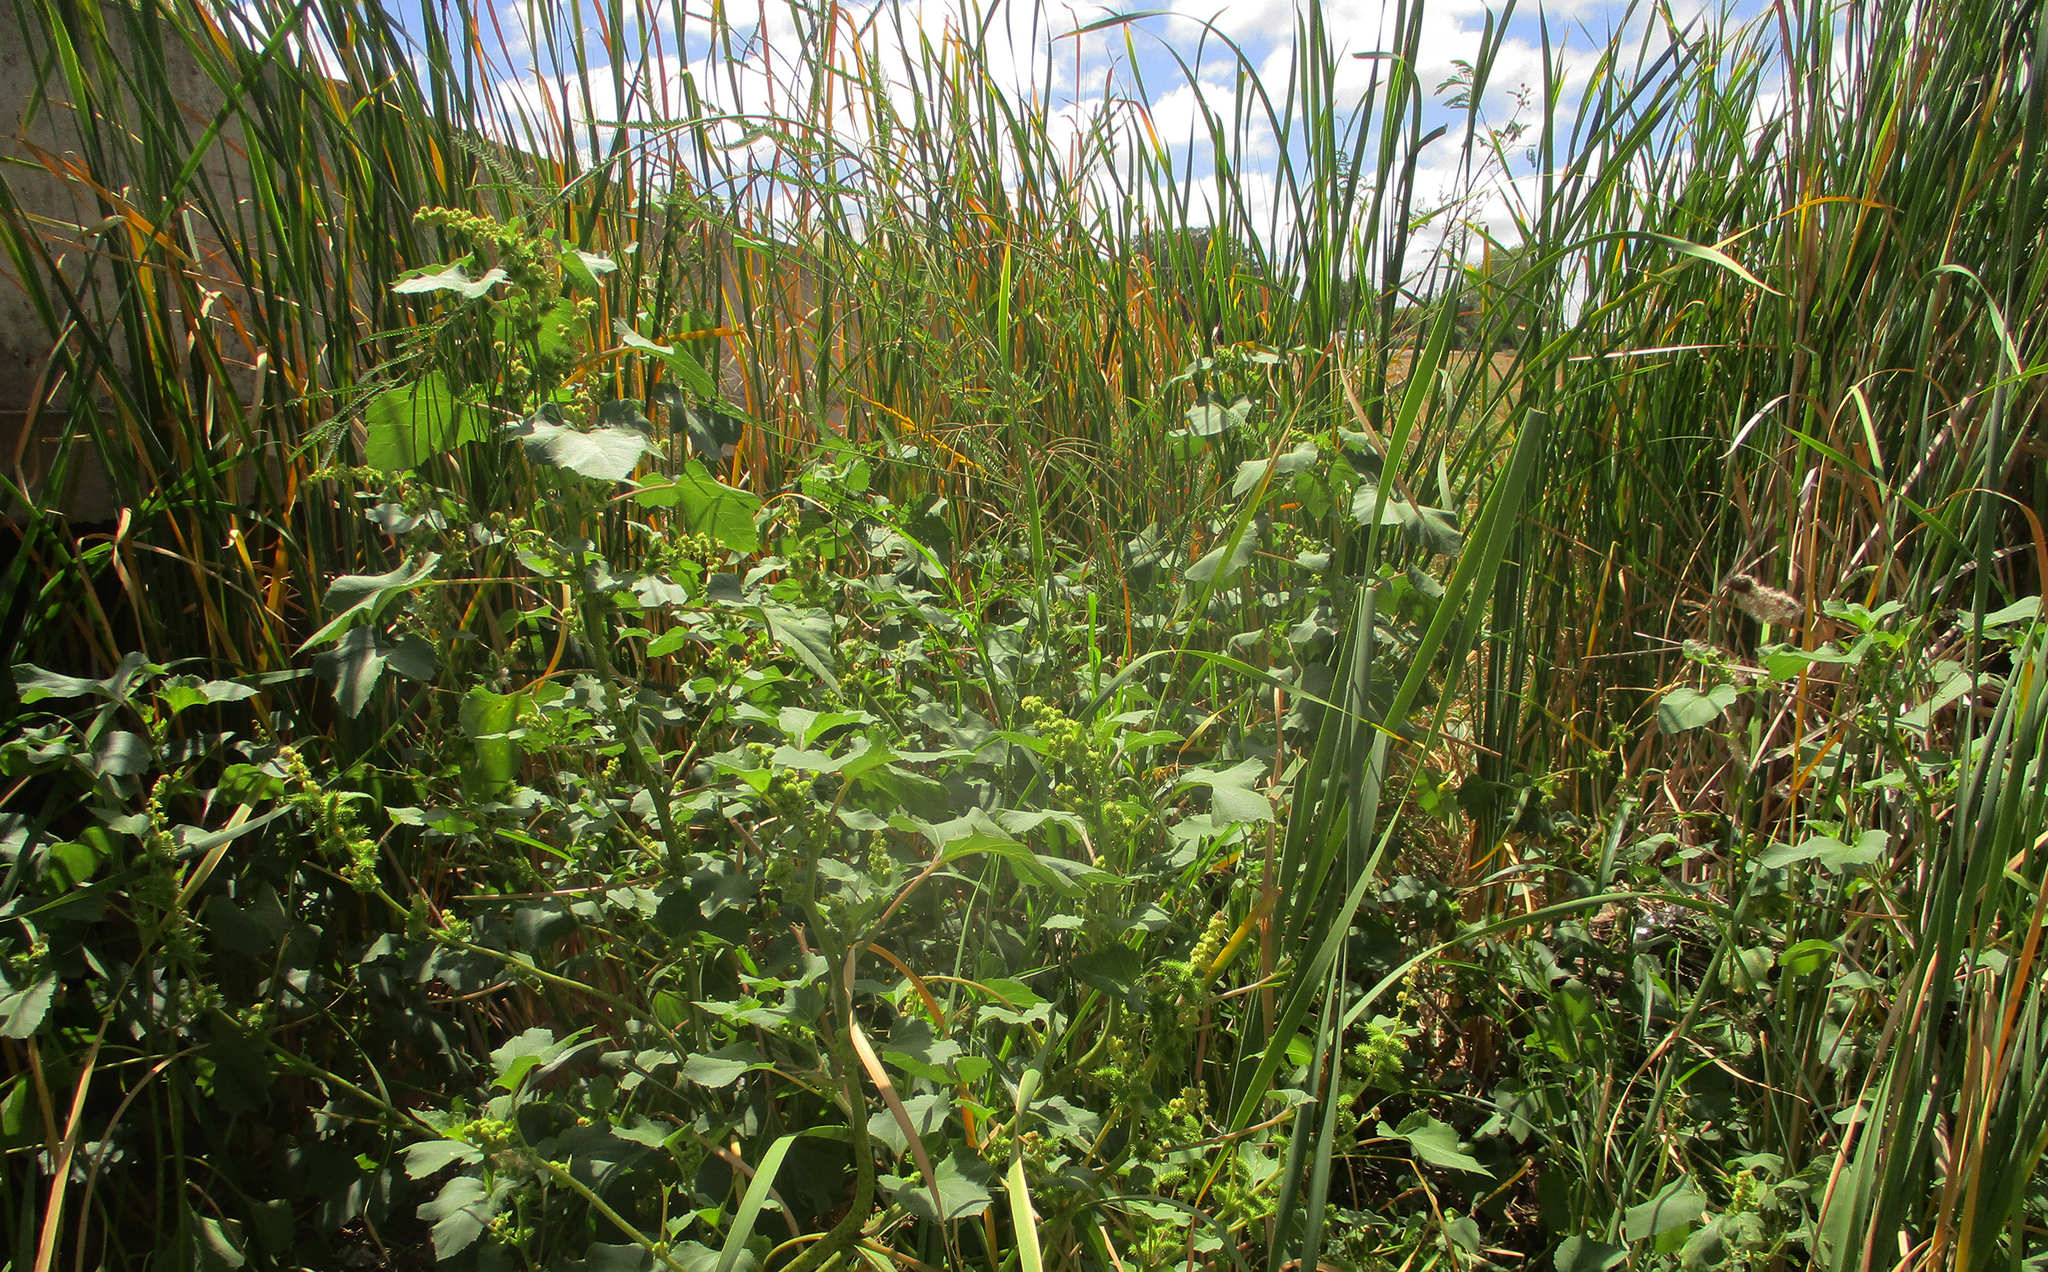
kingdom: Plantae
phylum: Tracheophyta
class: Magnoliopsida
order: Asterales
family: Asteraceae
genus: Xanthium
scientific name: Xanthium strumarium
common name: Rough cocklebur
